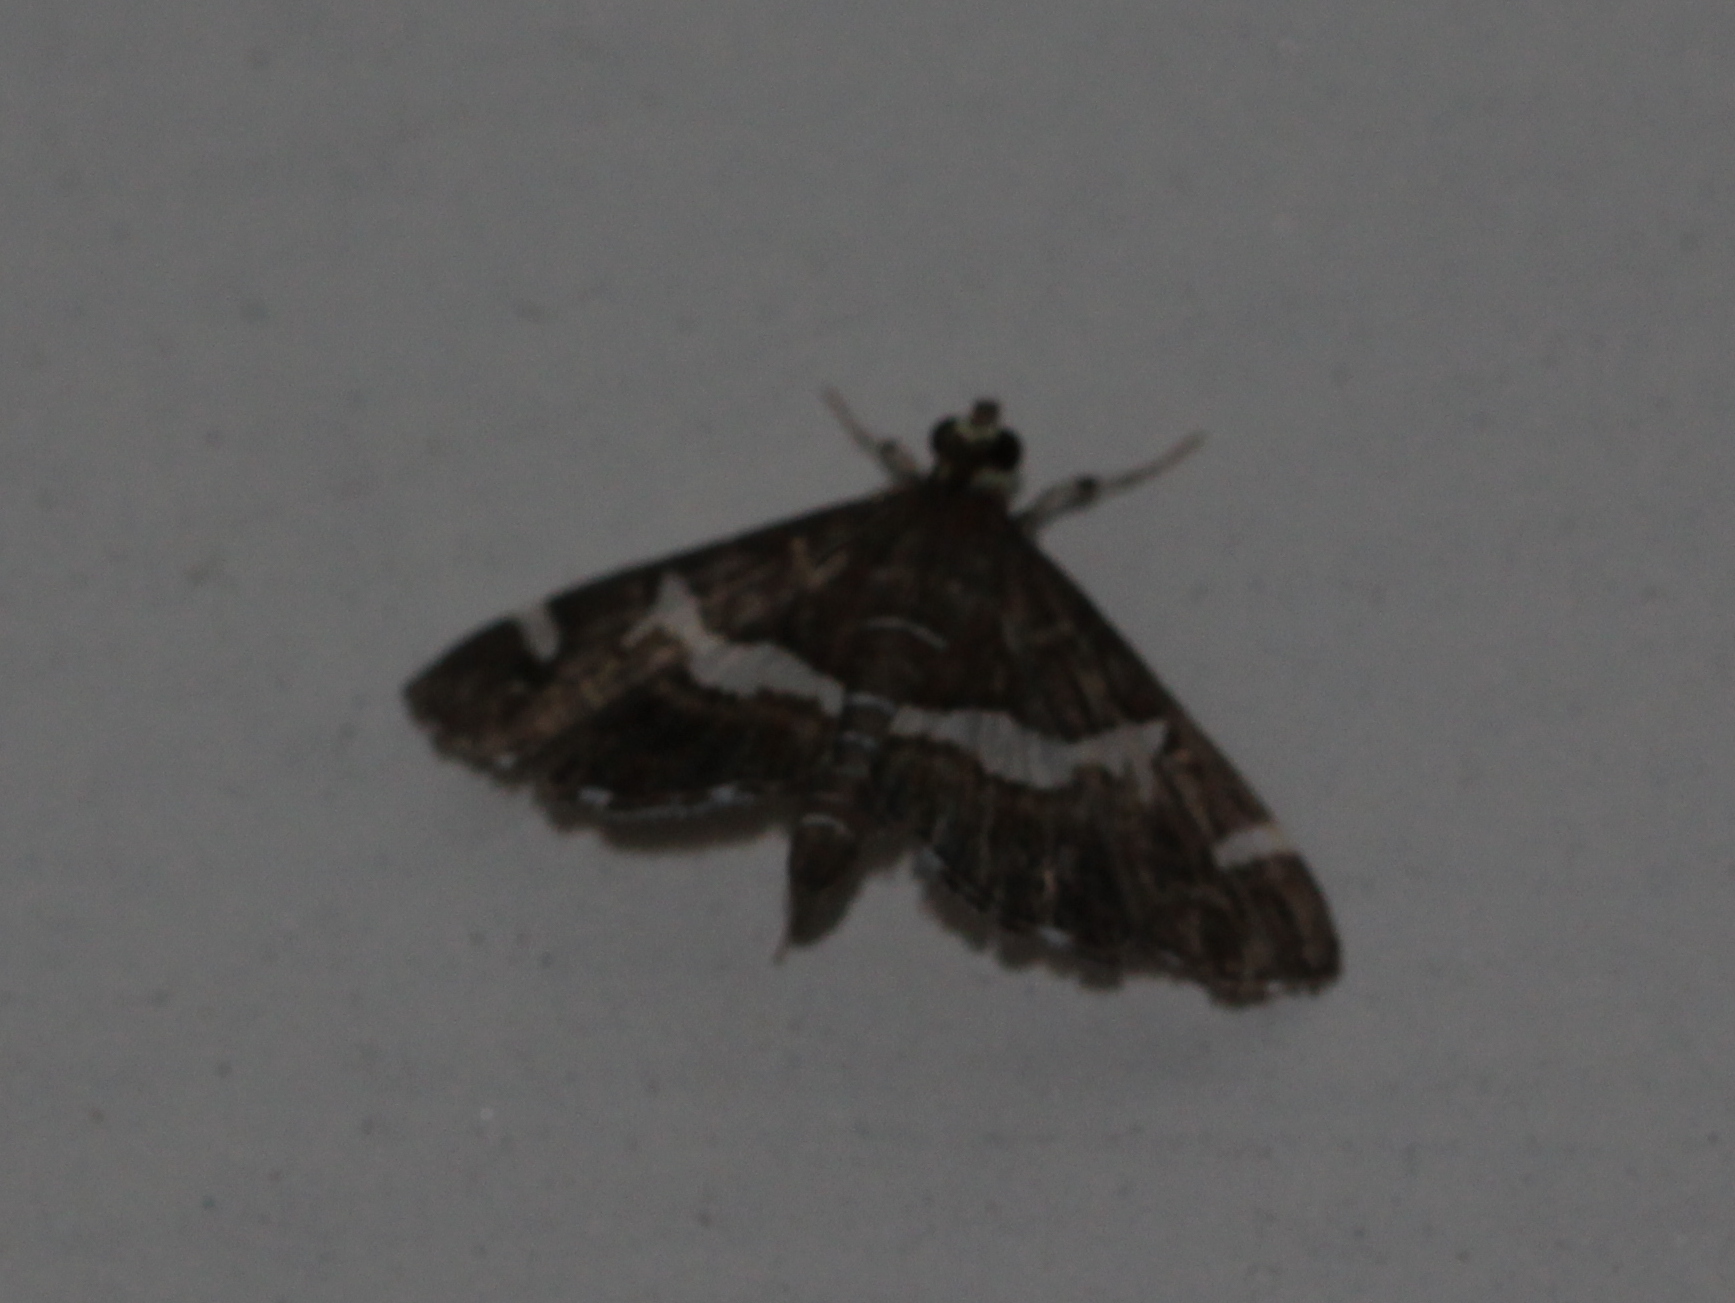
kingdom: Animalia
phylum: Arthropoda
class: Insecta
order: Lepidoptera
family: Crambidae
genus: Spoladea
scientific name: Spoladea recurvalis
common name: Beet webworm moth
